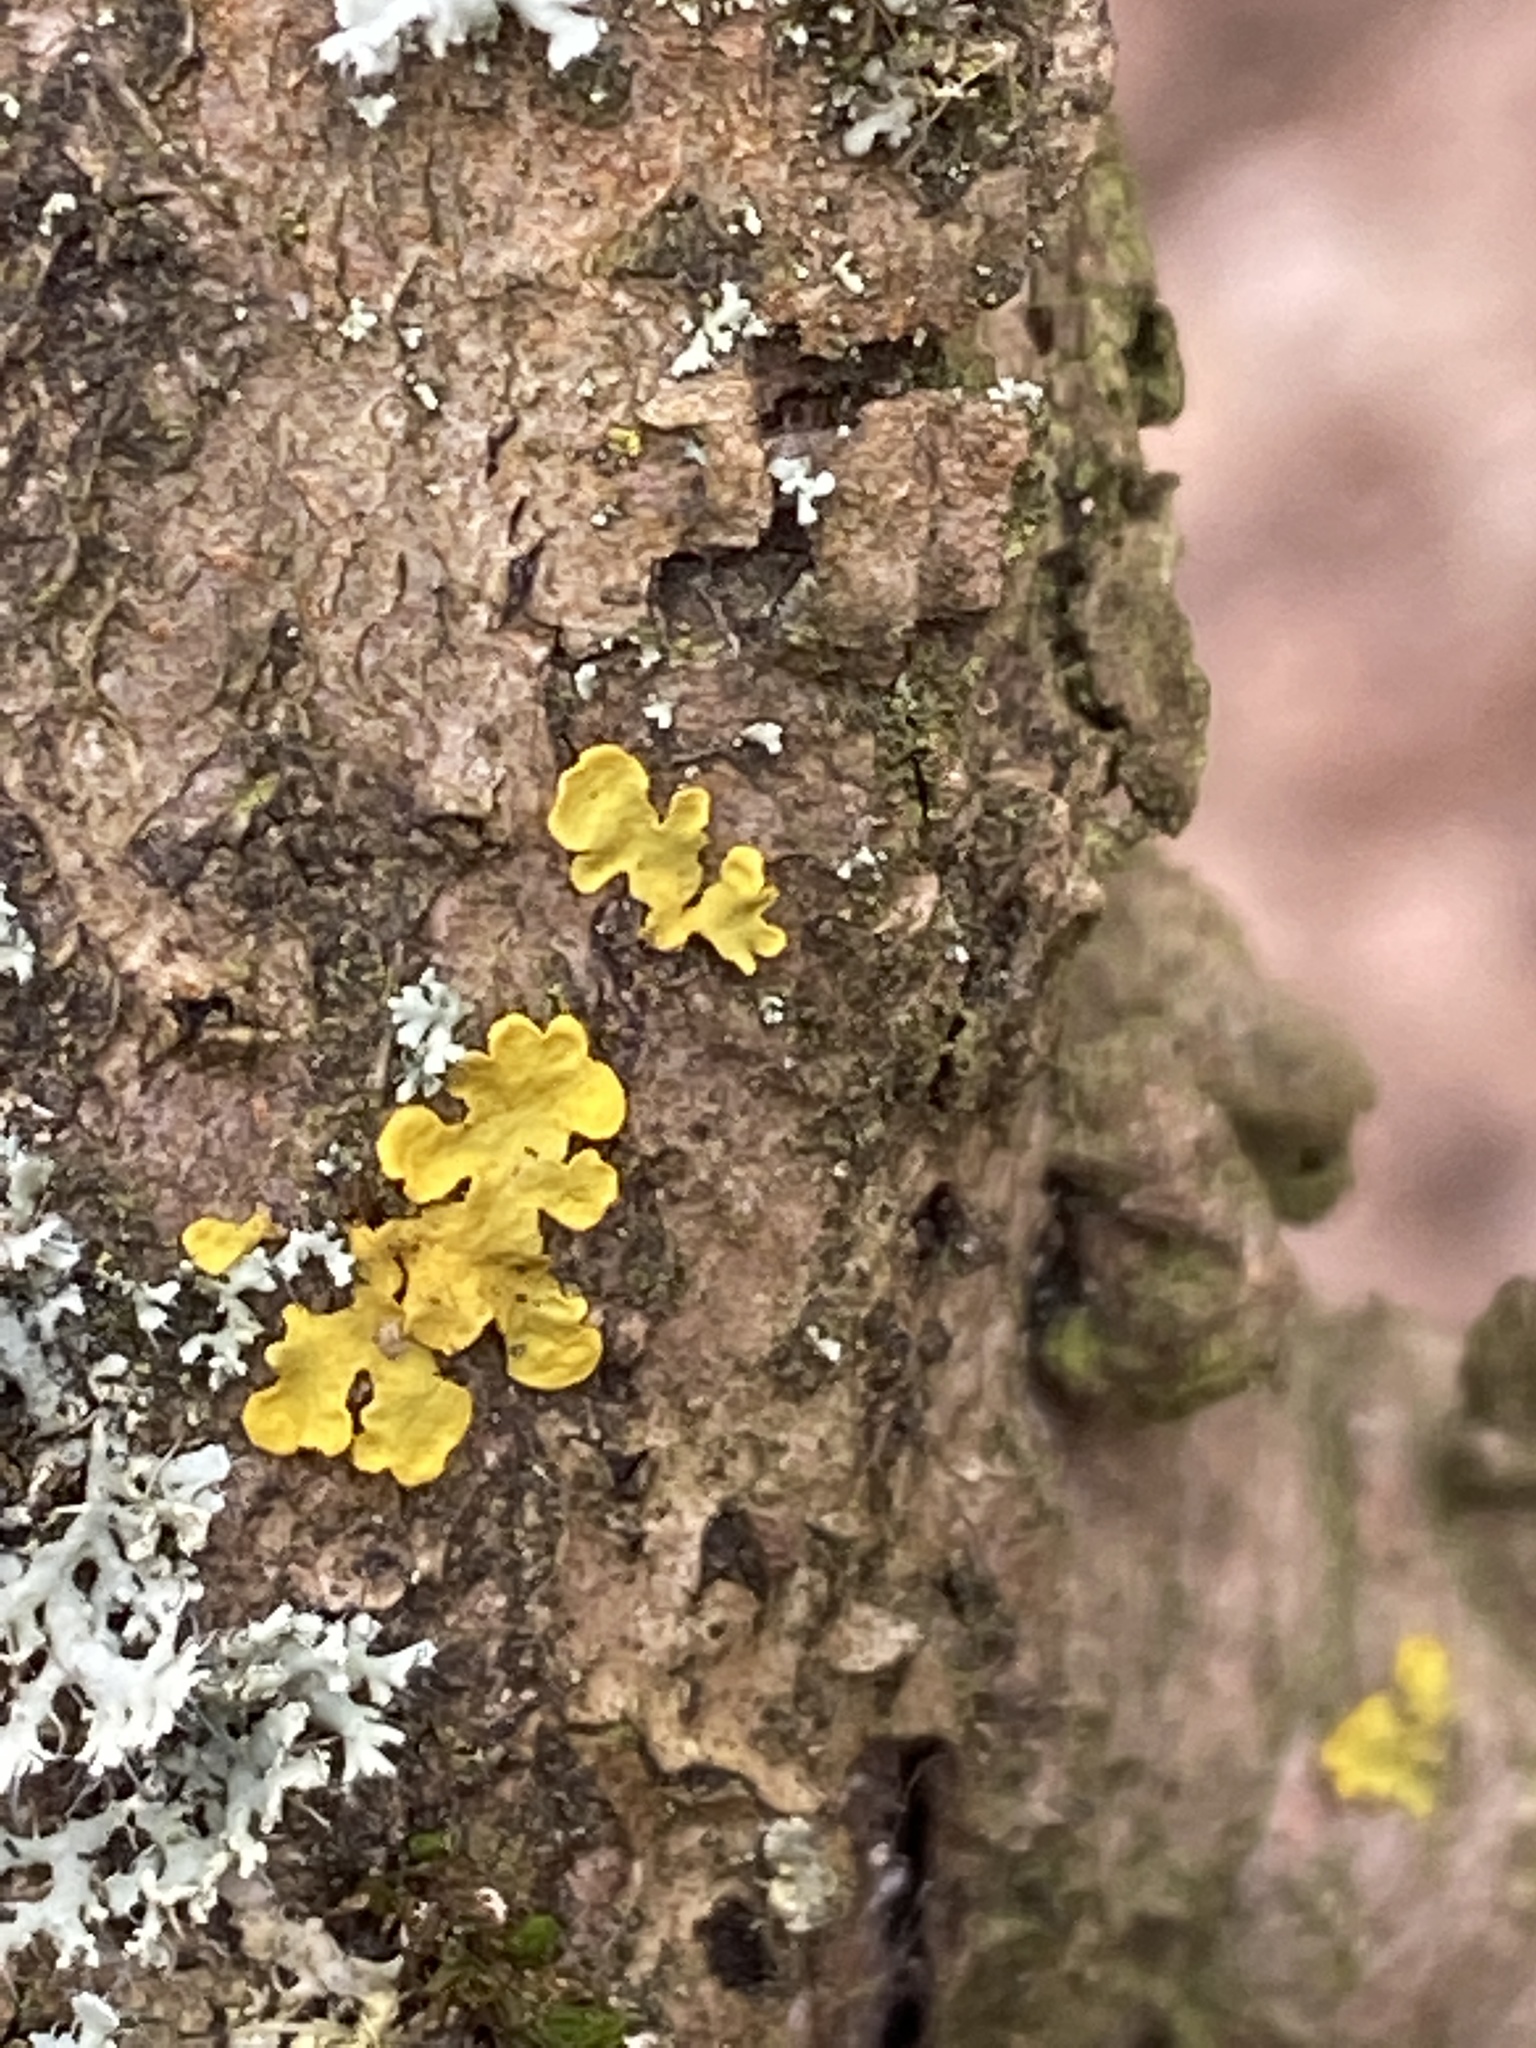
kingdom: Fungi
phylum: Ascomycota
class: Lecanoromycetes
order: Teloschistales
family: Teloschistaceae
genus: Xanthoria
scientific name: Xanthoria parietina
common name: Common orange lichen
